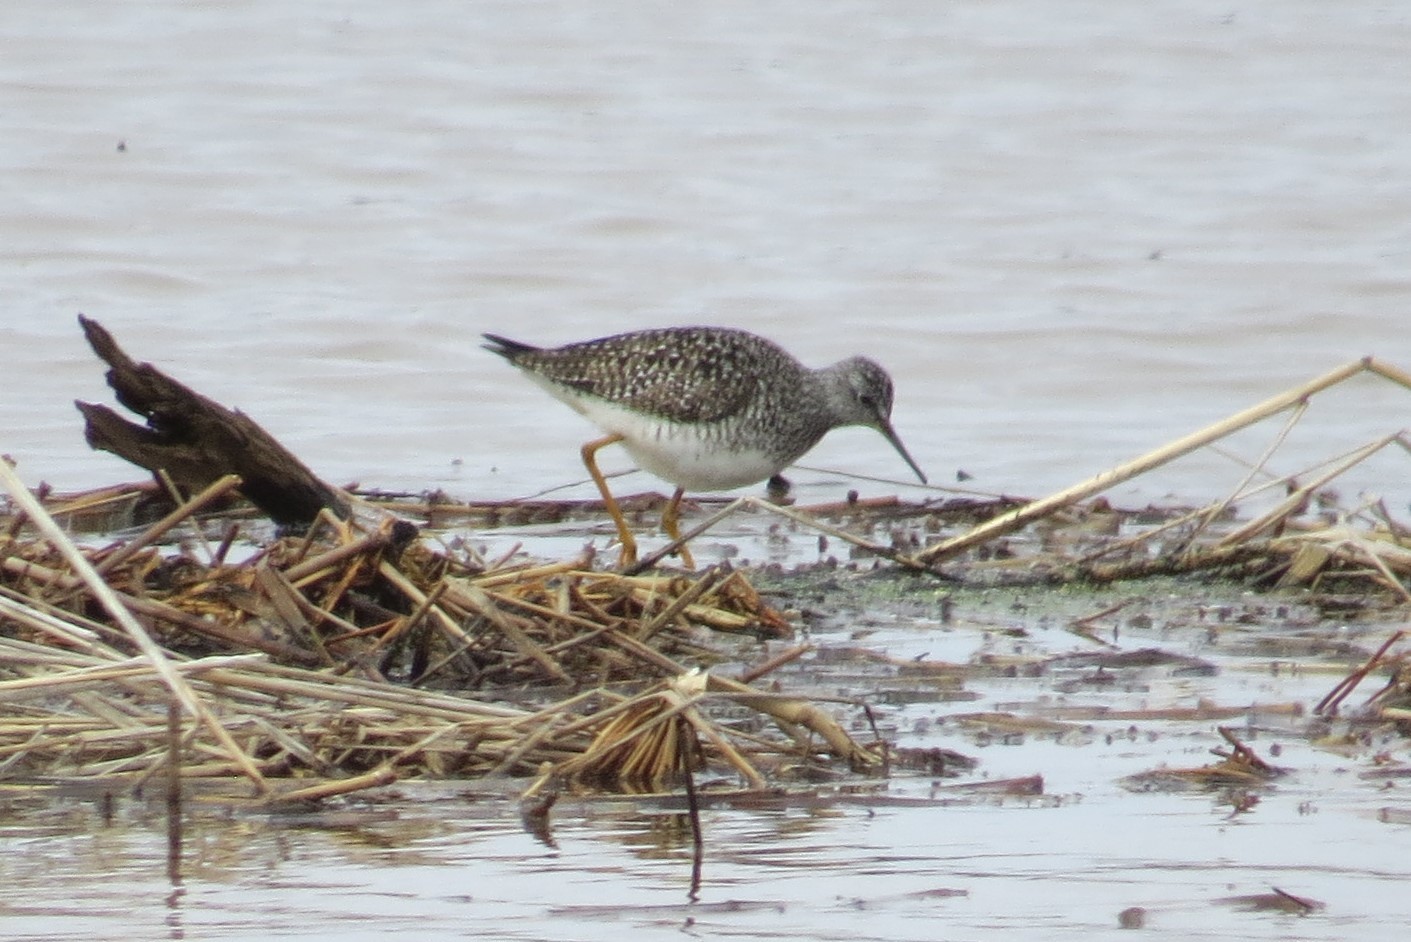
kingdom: Animalia
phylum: Chordata
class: Aves
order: Charadriiformes
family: Scolopacidae
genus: Tringa
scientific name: Tringa flavipes
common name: Lesser yellowlegs
